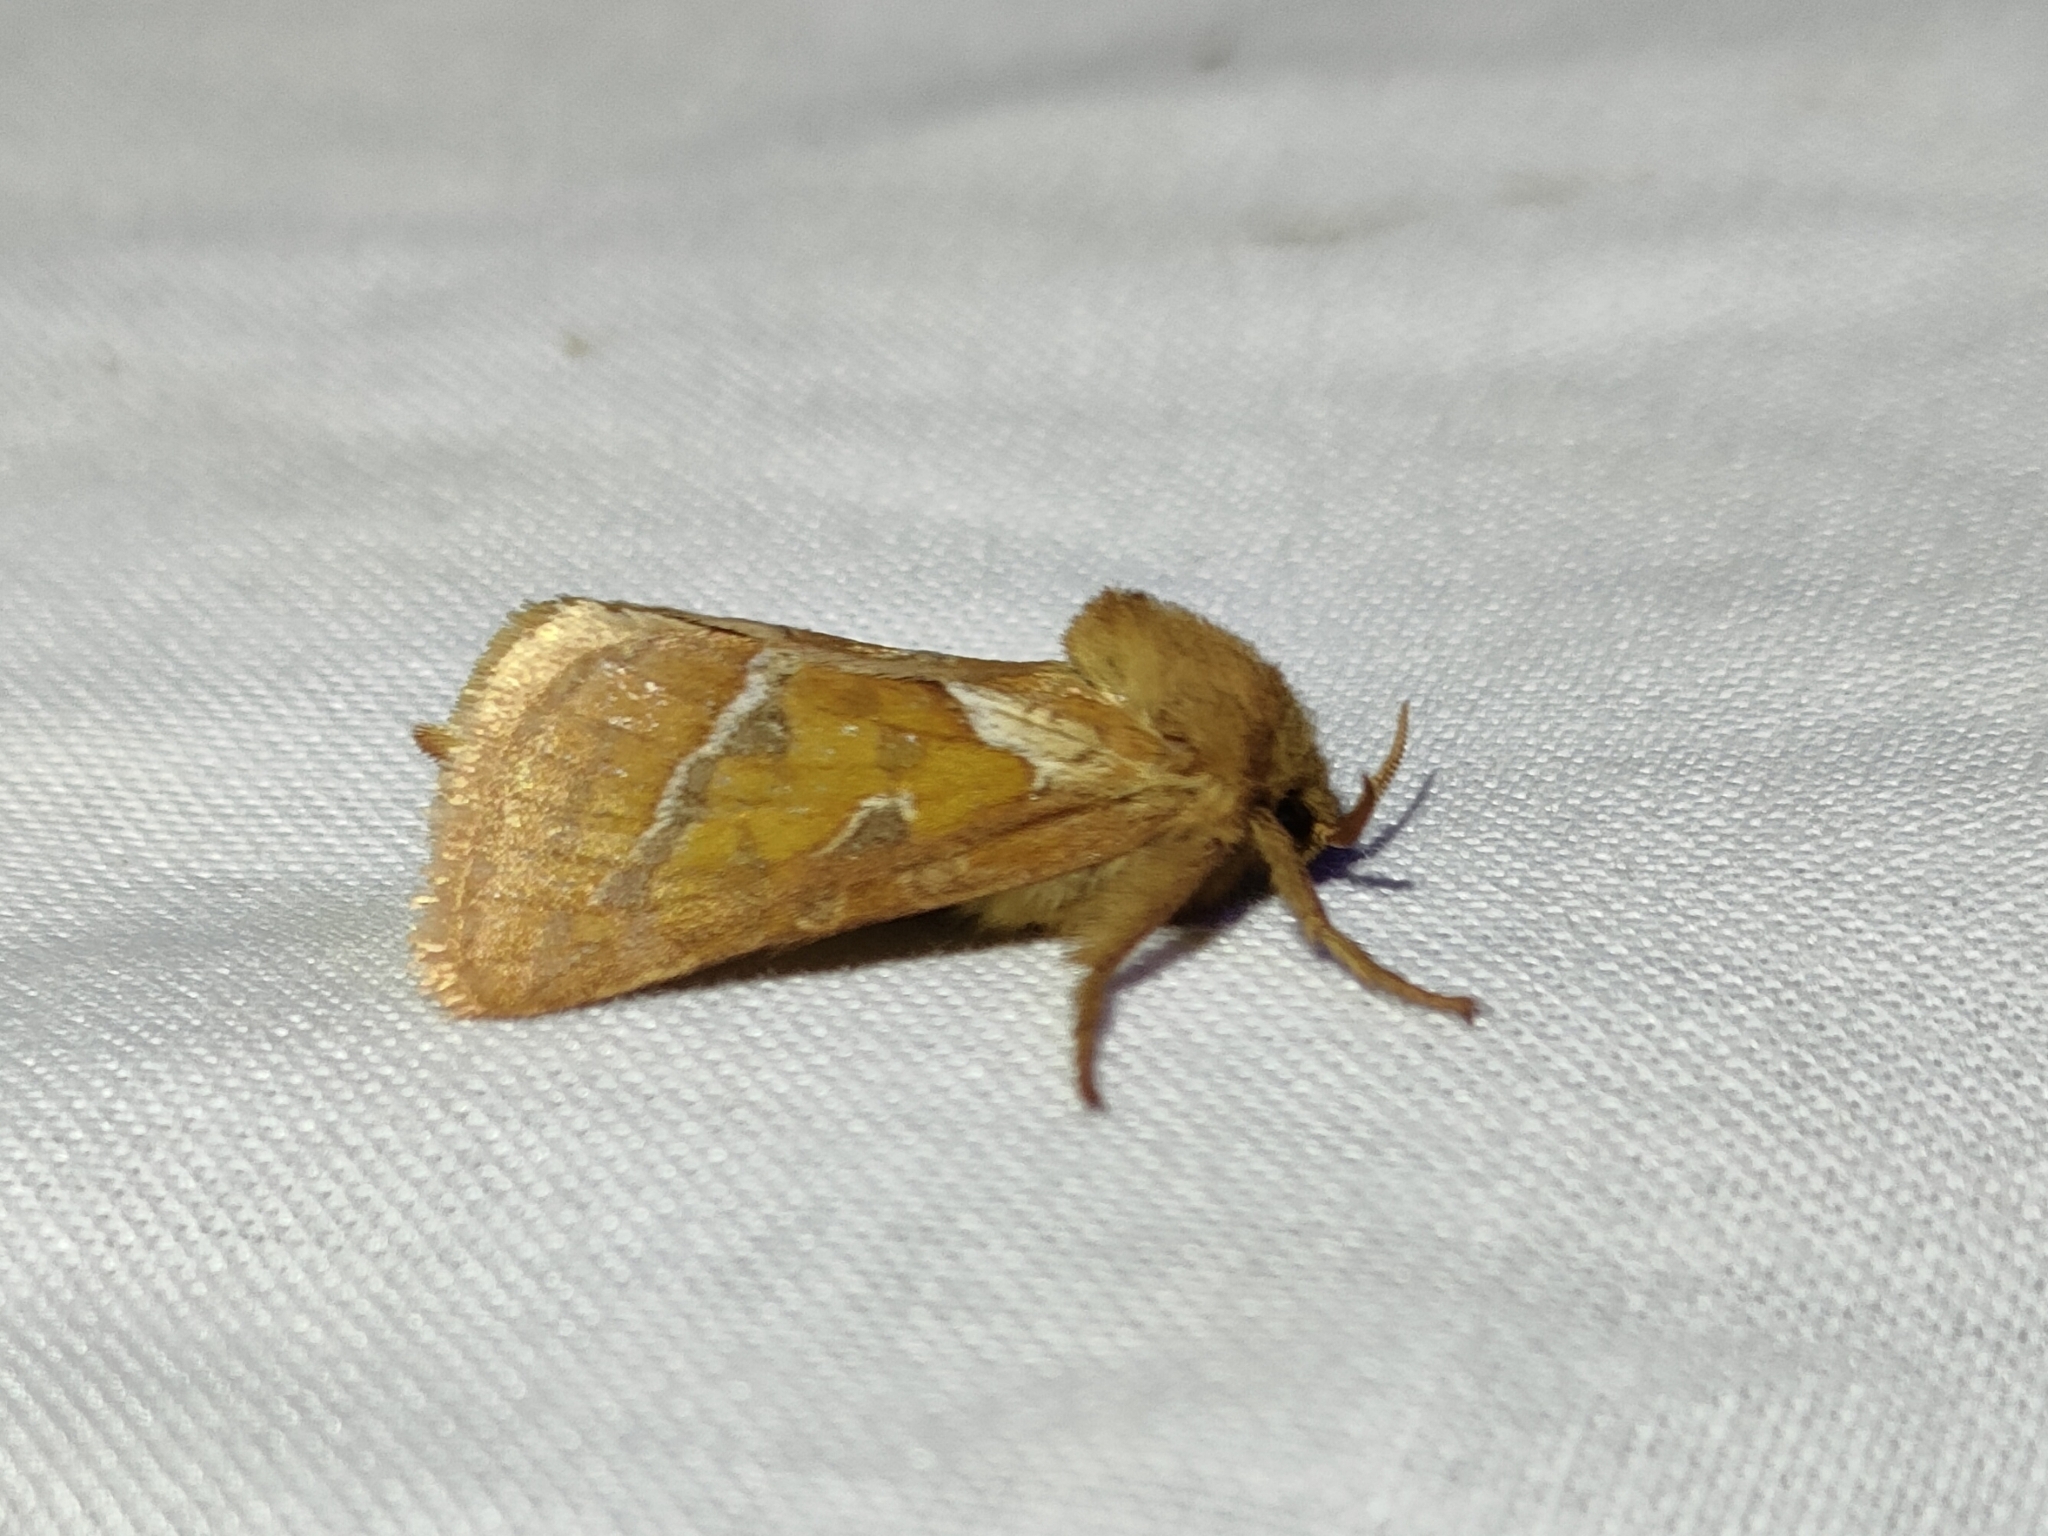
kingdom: Animalia
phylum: Arthropoda
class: Insecta
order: Lepidoptera
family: Hepialidae
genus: Triodia
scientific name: Triodia sylvina
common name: Orange swift
